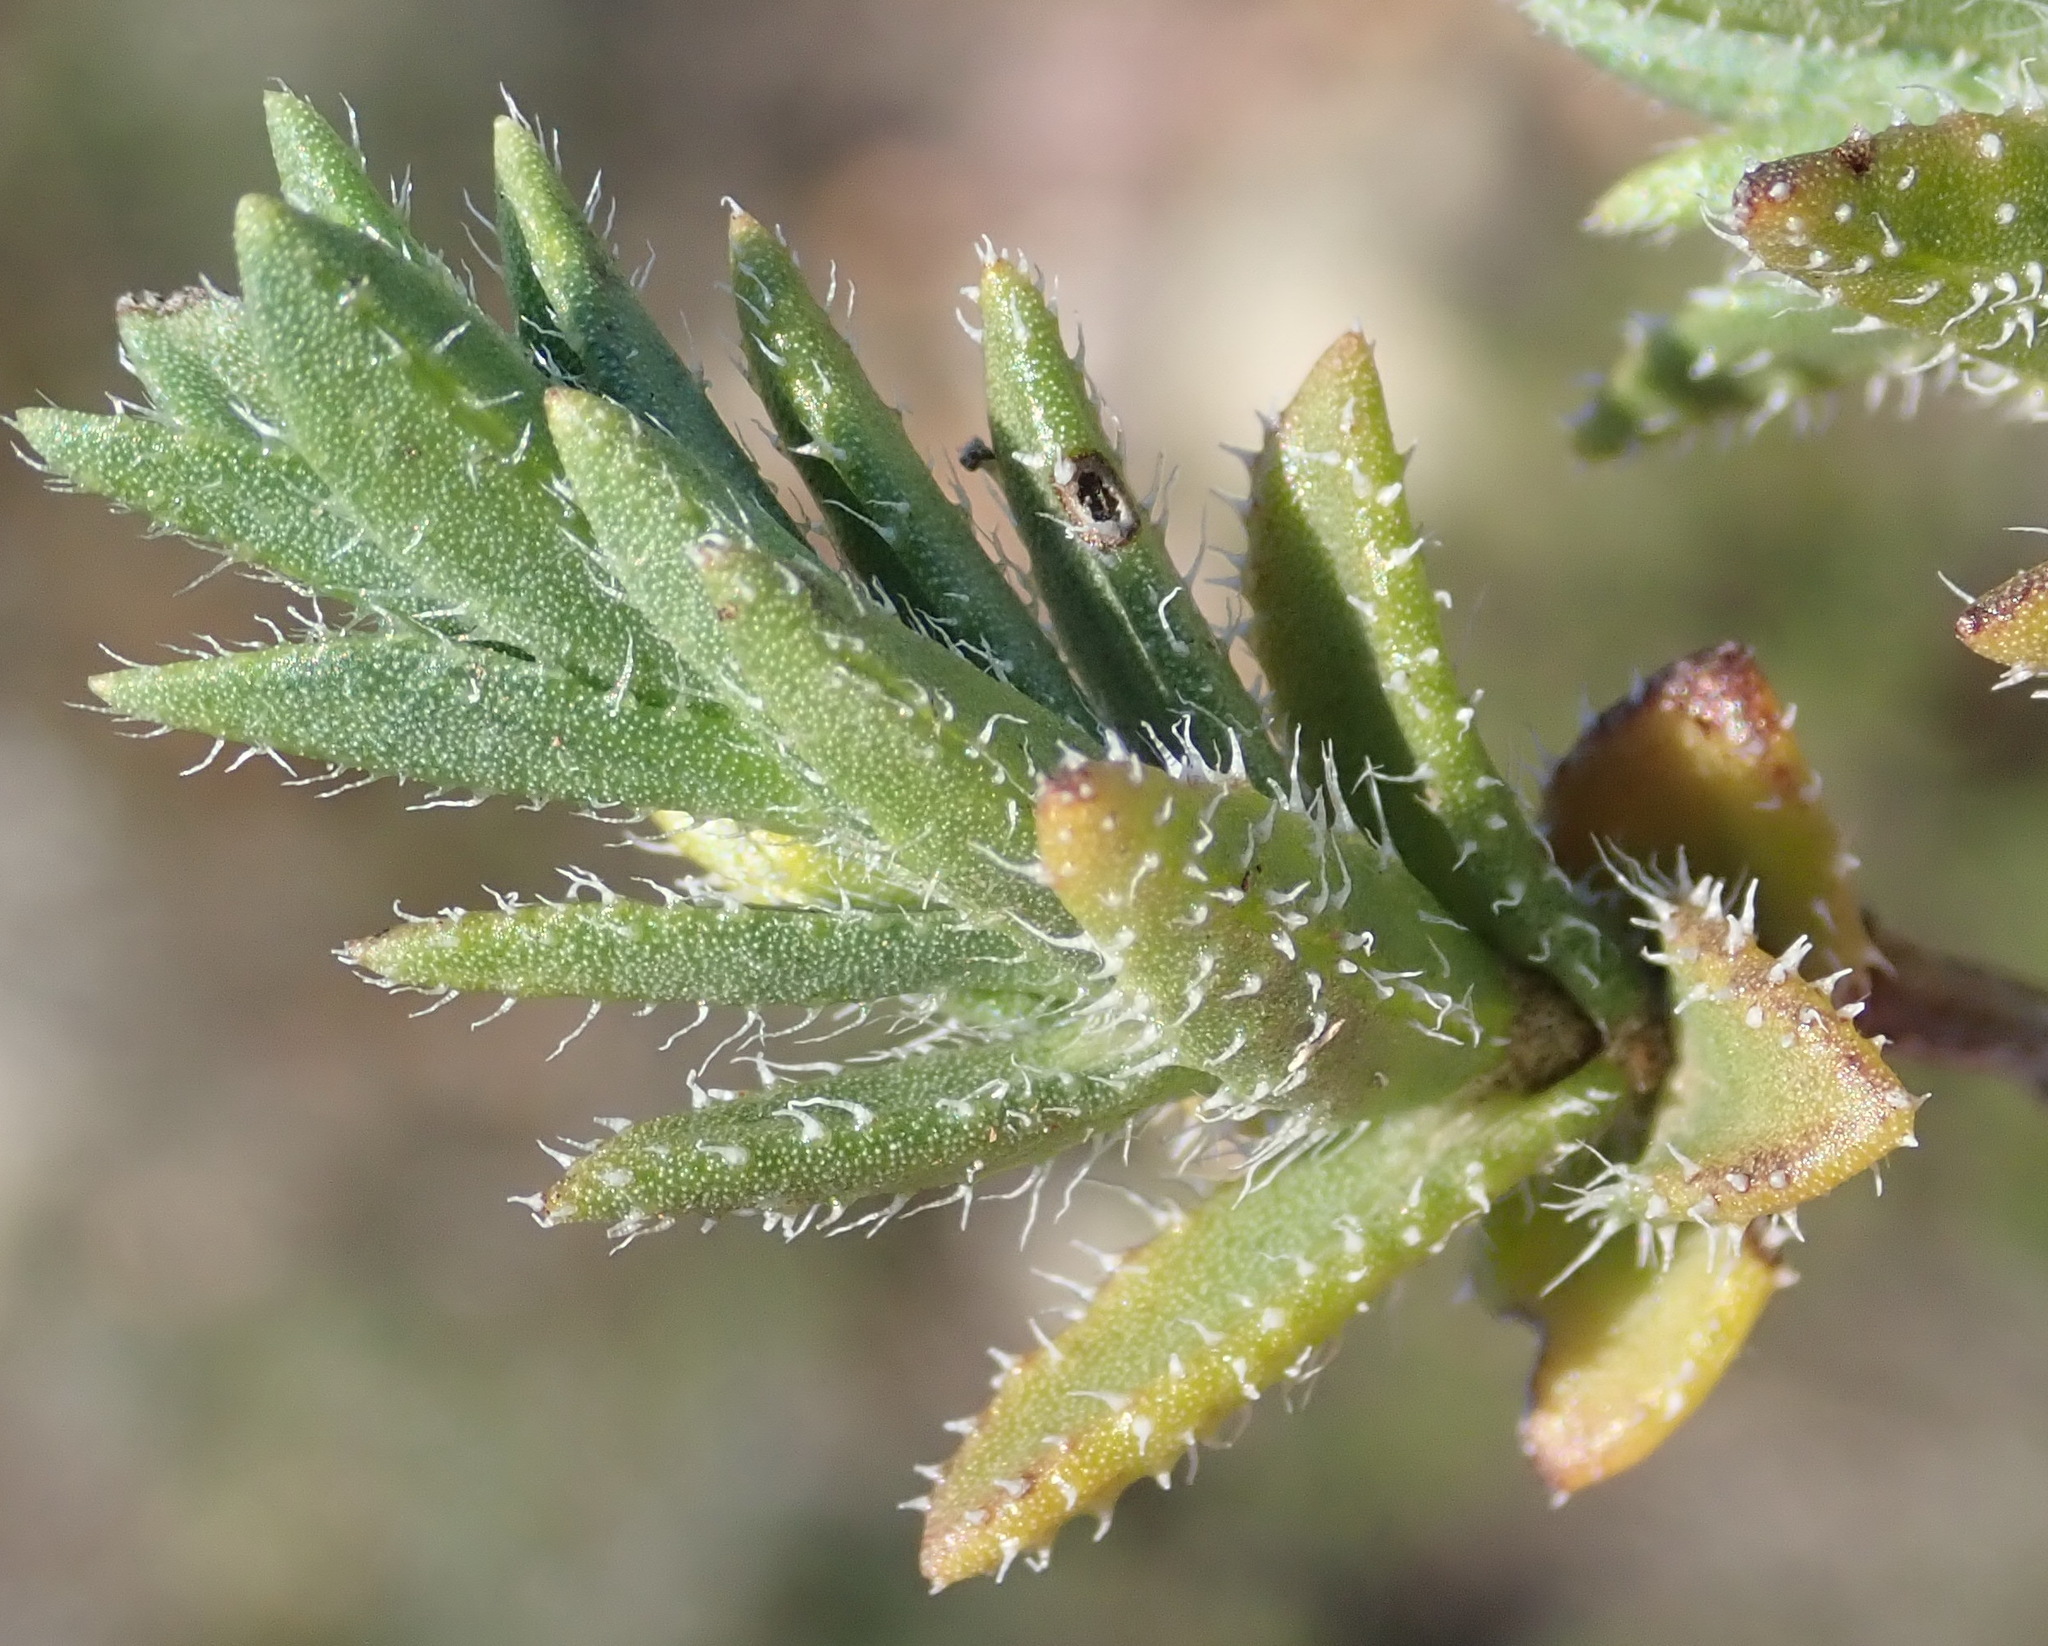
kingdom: Plantae
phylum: Tracheophyta
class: Magnoliopsida
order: Asterales
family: Asteraceae
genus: Pteronia
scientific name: Pteronia hirsuta
